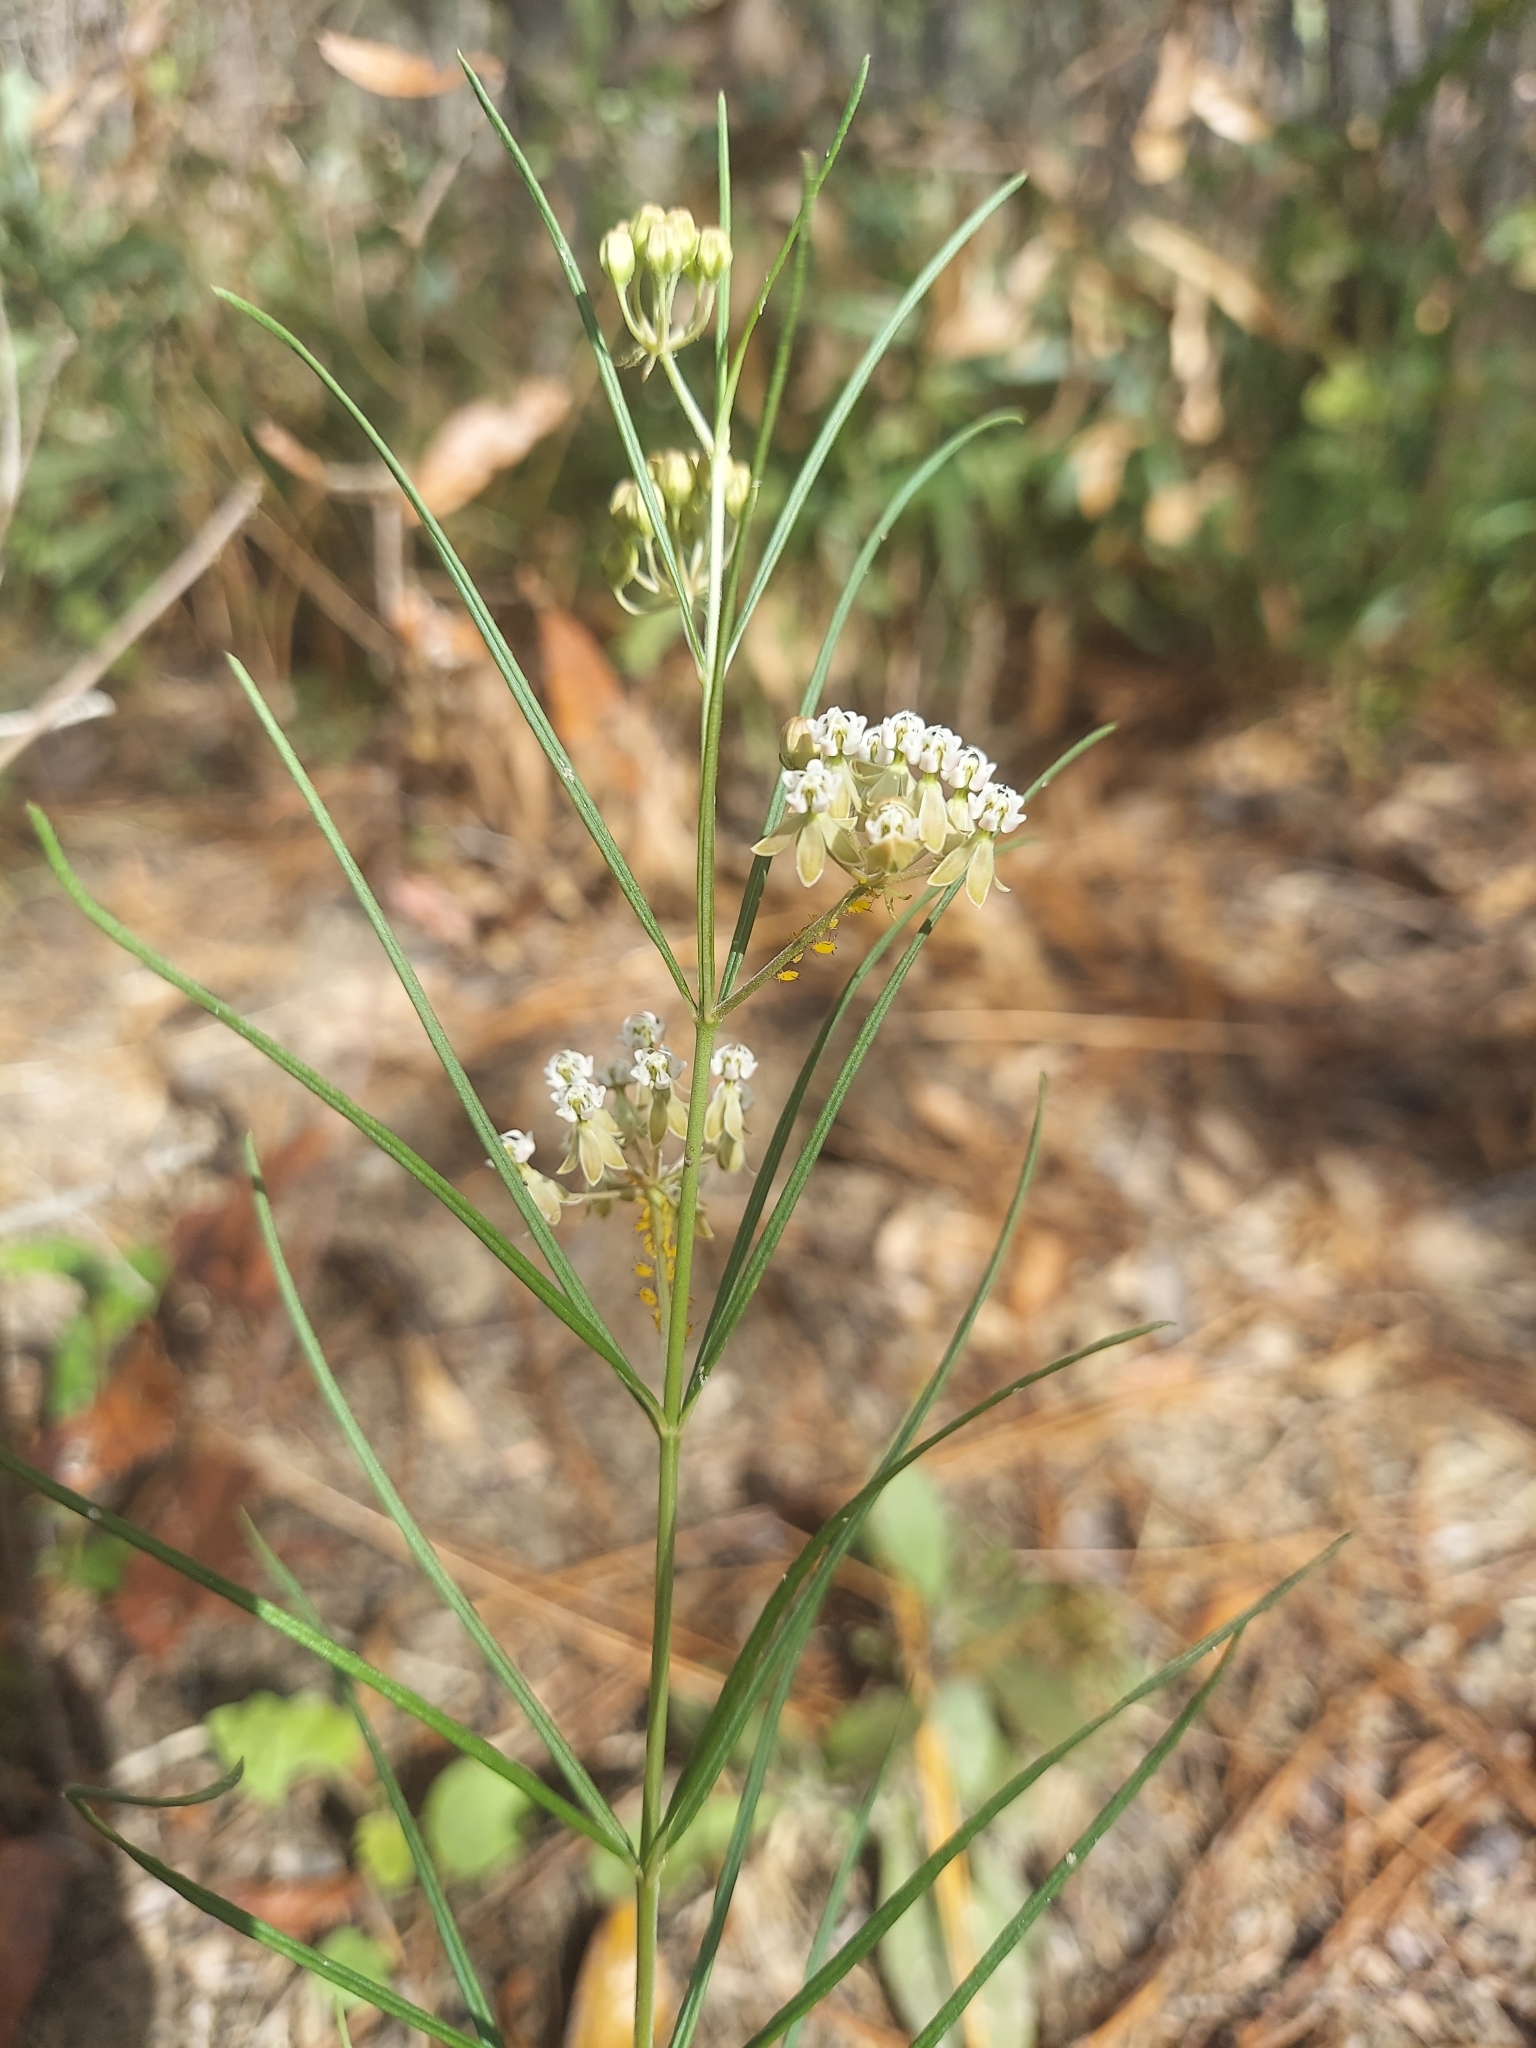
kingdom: Plantae
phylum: Tracheophyta
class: Magnoliopsida
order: Gentianales
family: Apocynaceae
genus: Asclepias
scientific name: Asclepias verticillata
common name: Eastern whorled milkweed
